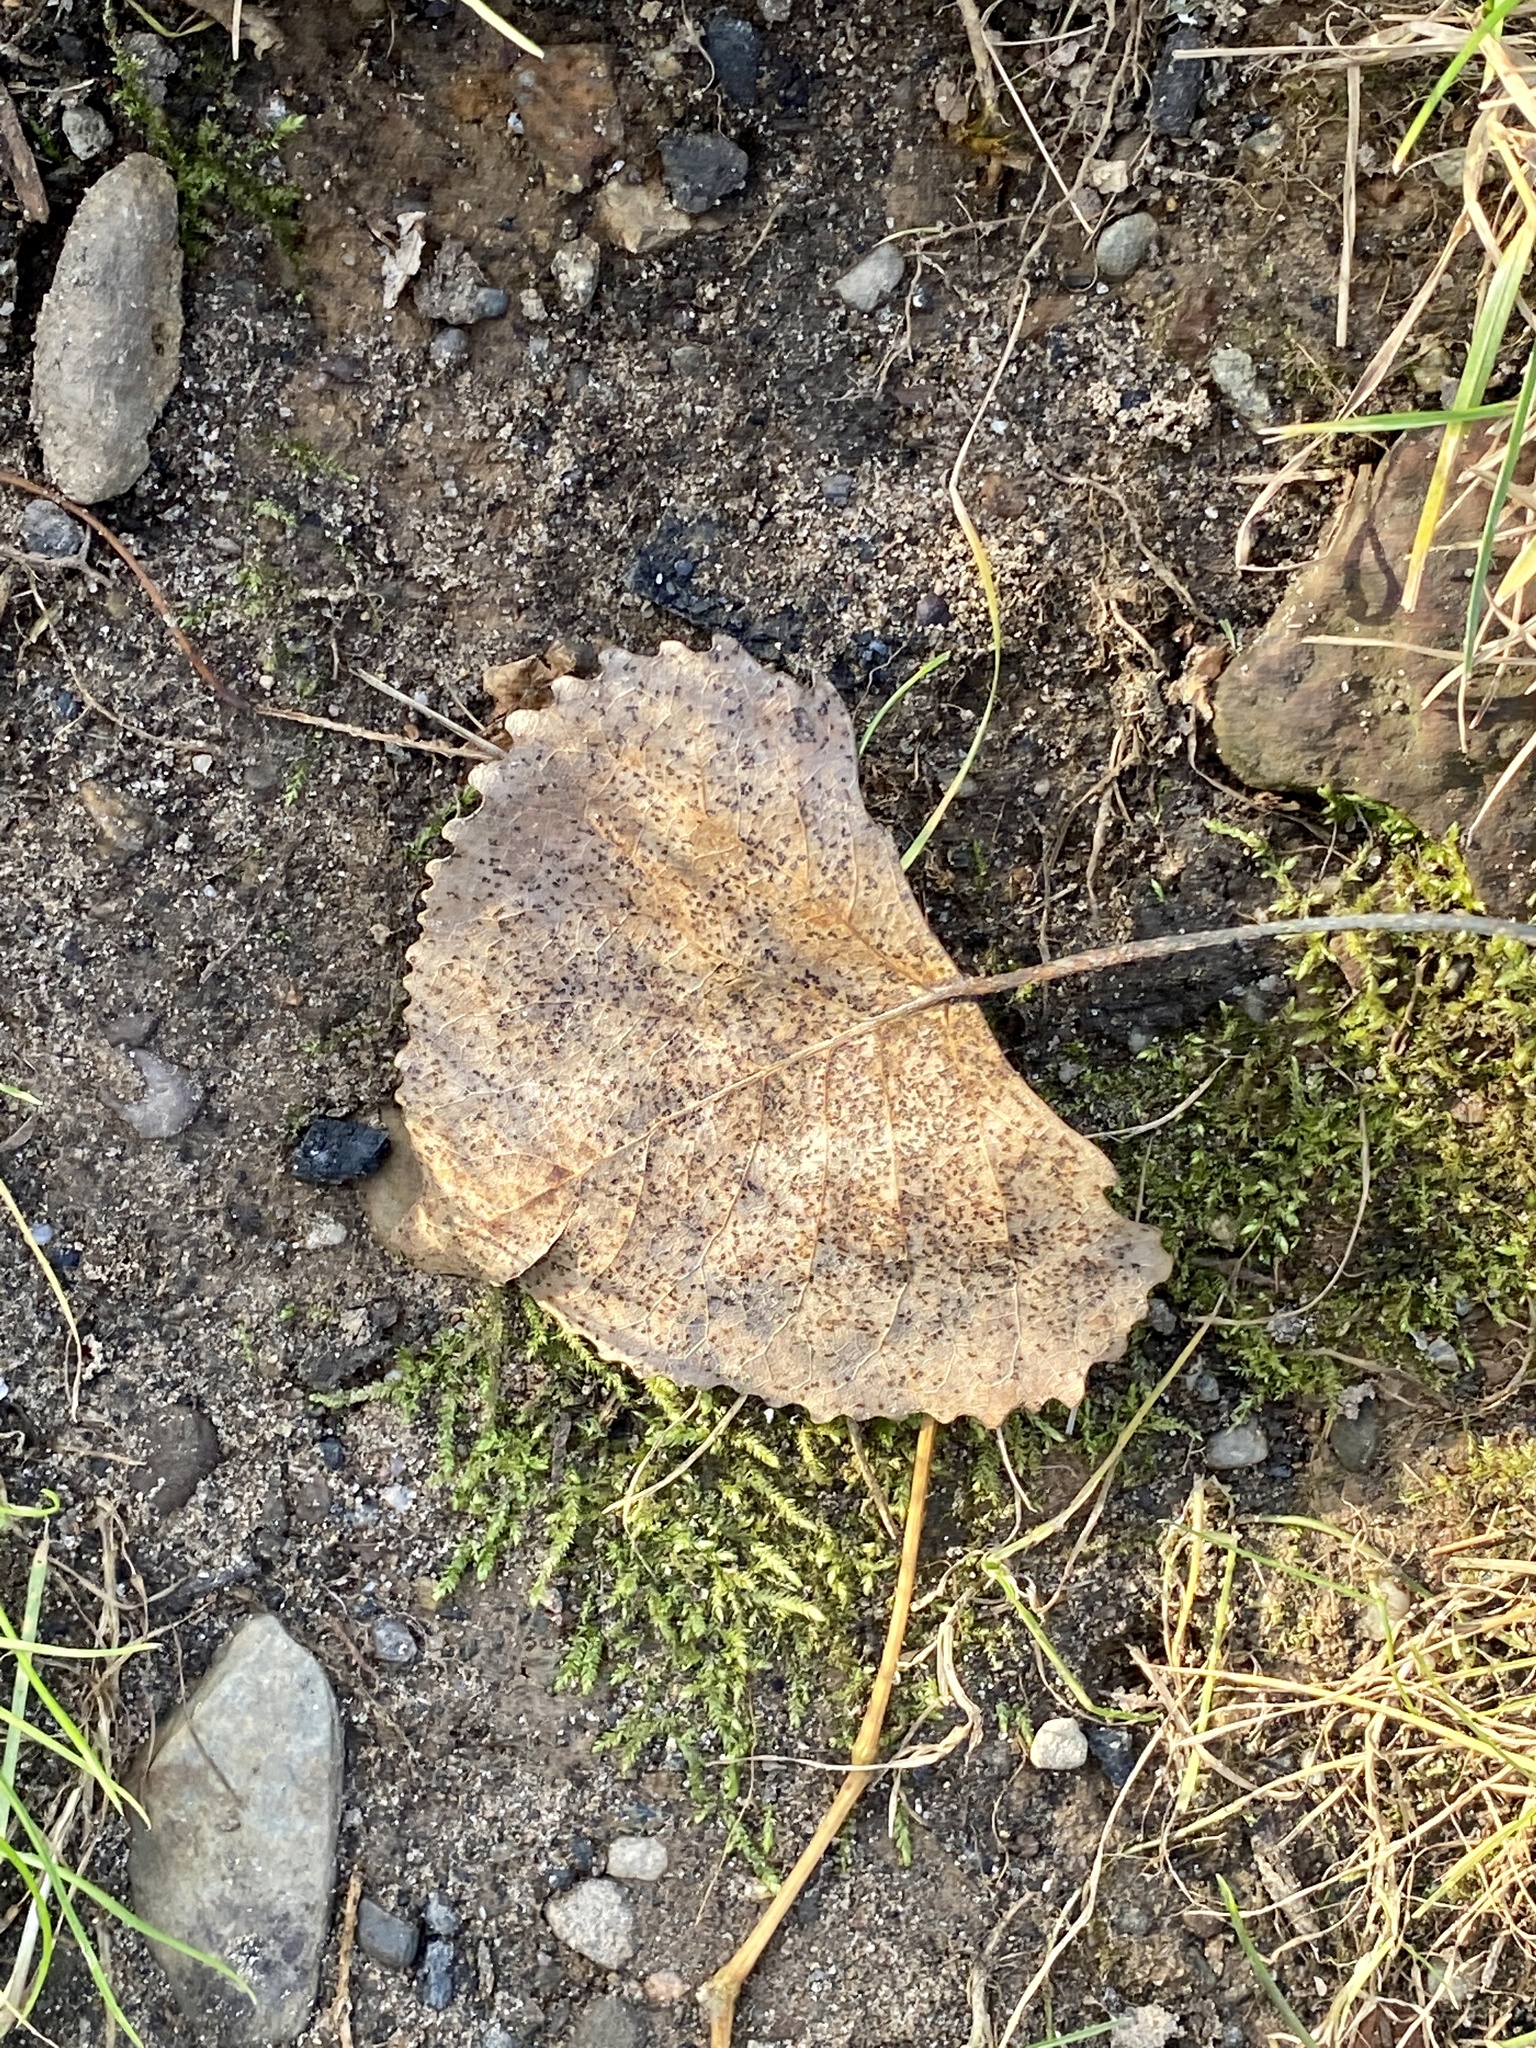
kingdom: Plantae
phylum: Tracheophyta
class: Magnoliopsida
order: Malpighiales
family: Salicaceae
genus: Populus
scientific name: Populus deltoides
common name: Eastern cottonwood
